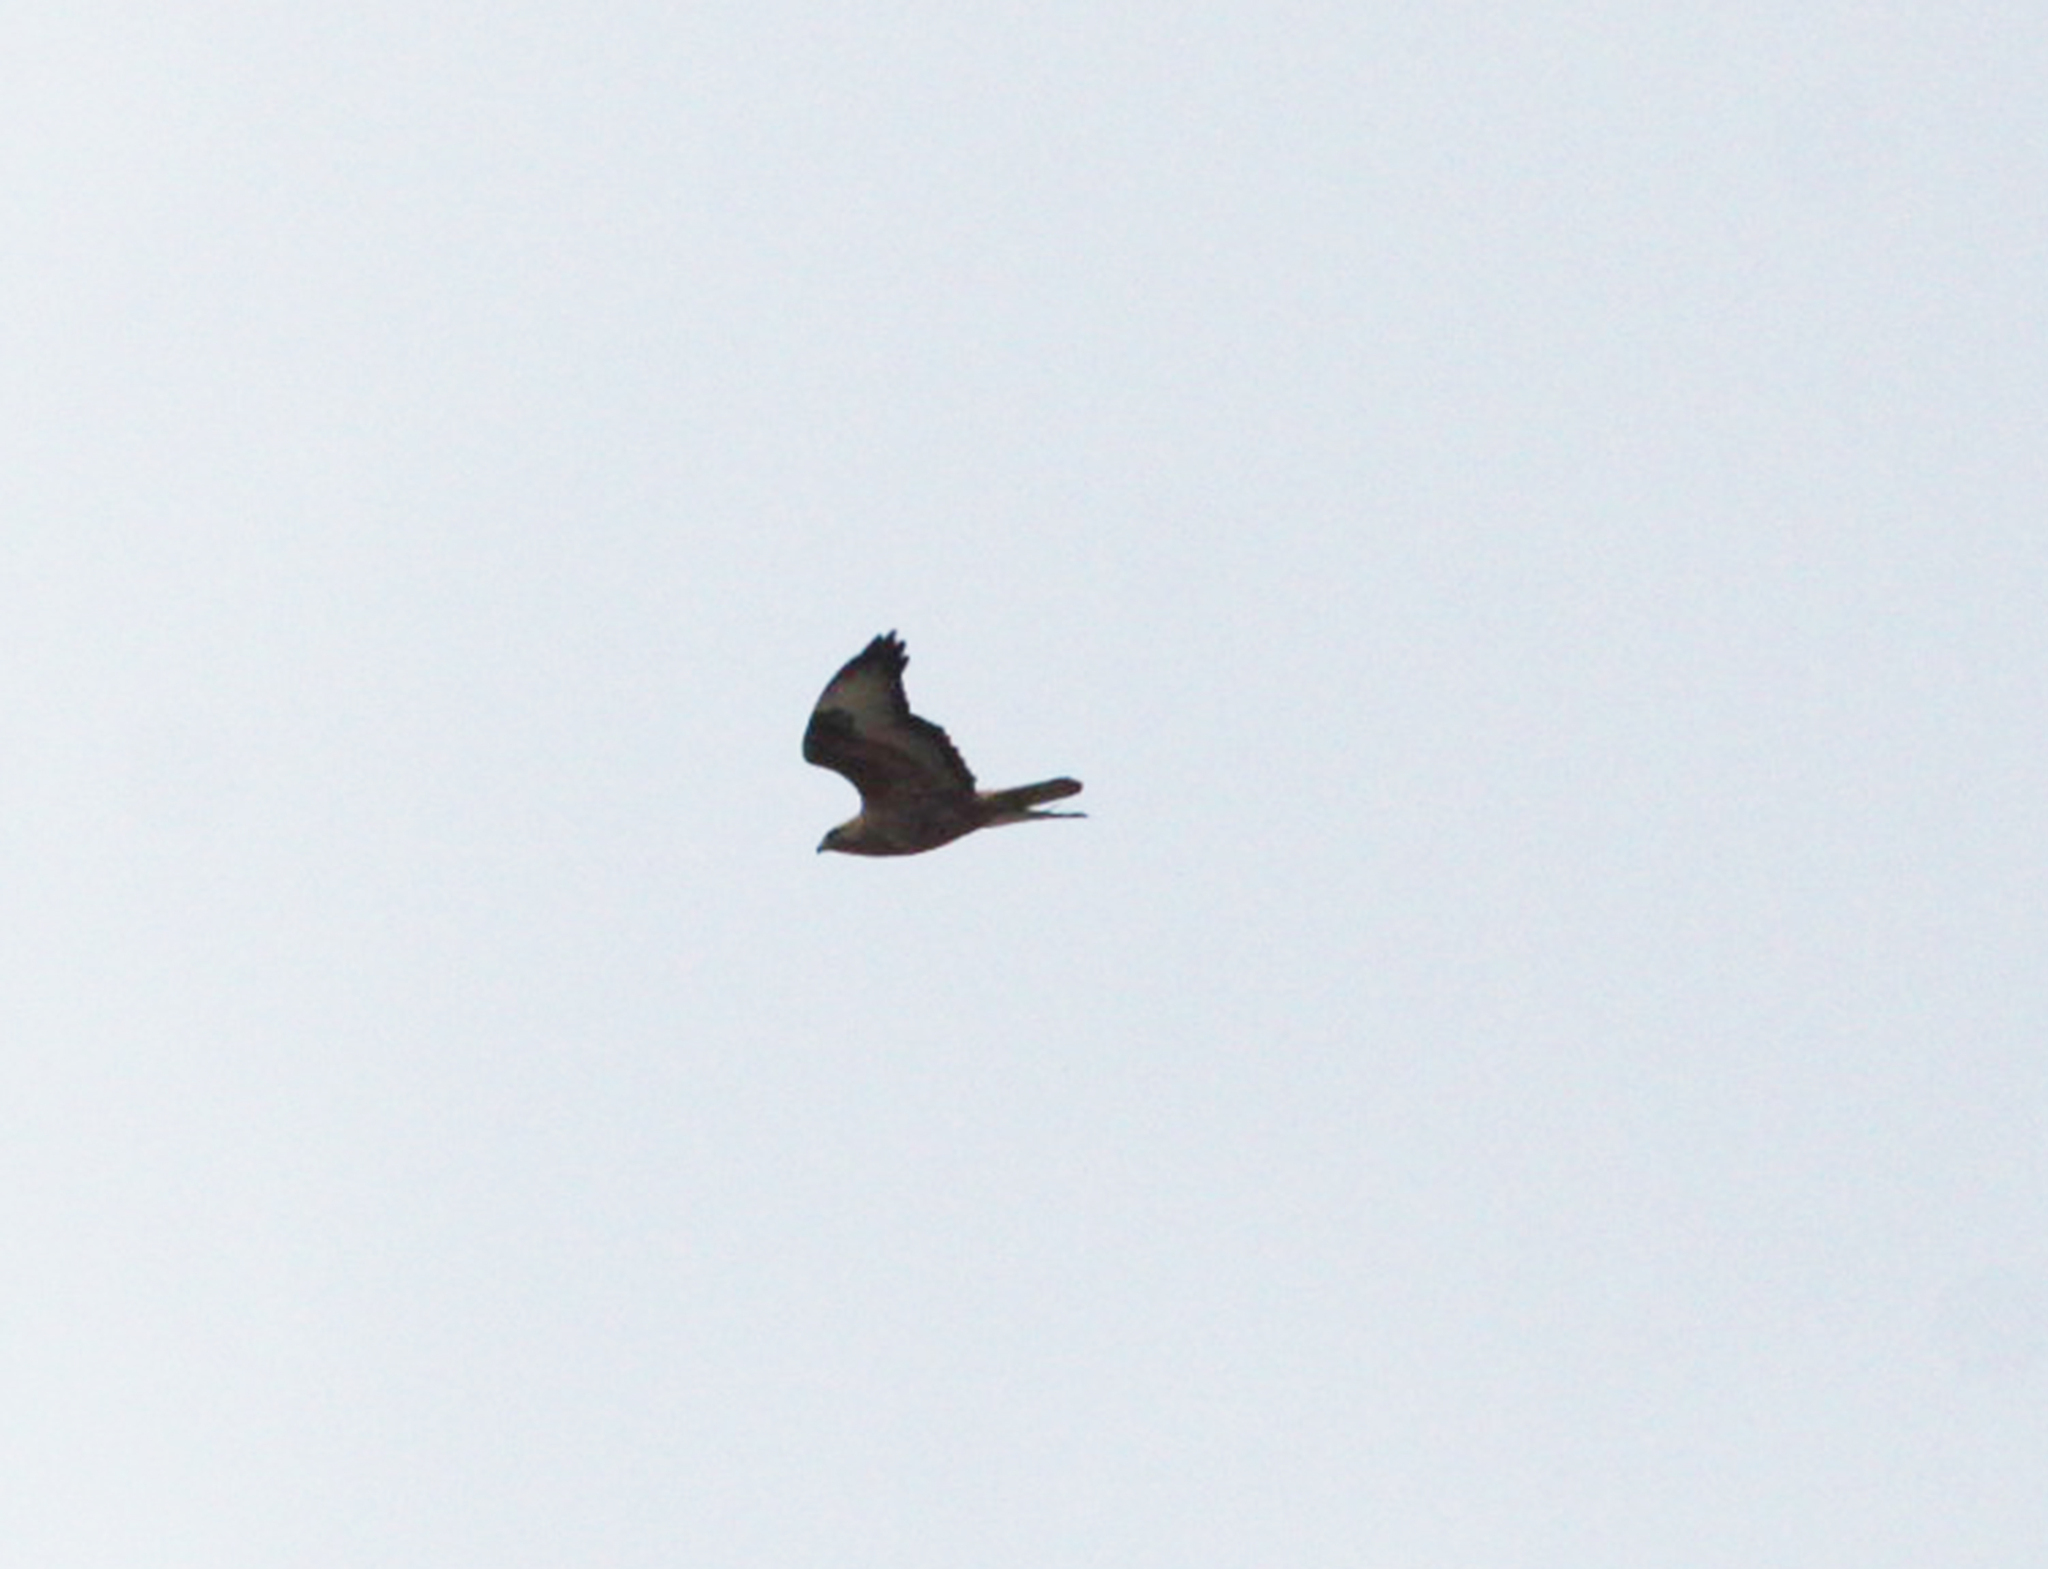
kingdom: Animalia
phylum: Chordata
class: Aves
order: Accipitriformes
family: Accipitridae
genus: Buteo
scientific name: Buteo buteo
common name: Common buzzard
